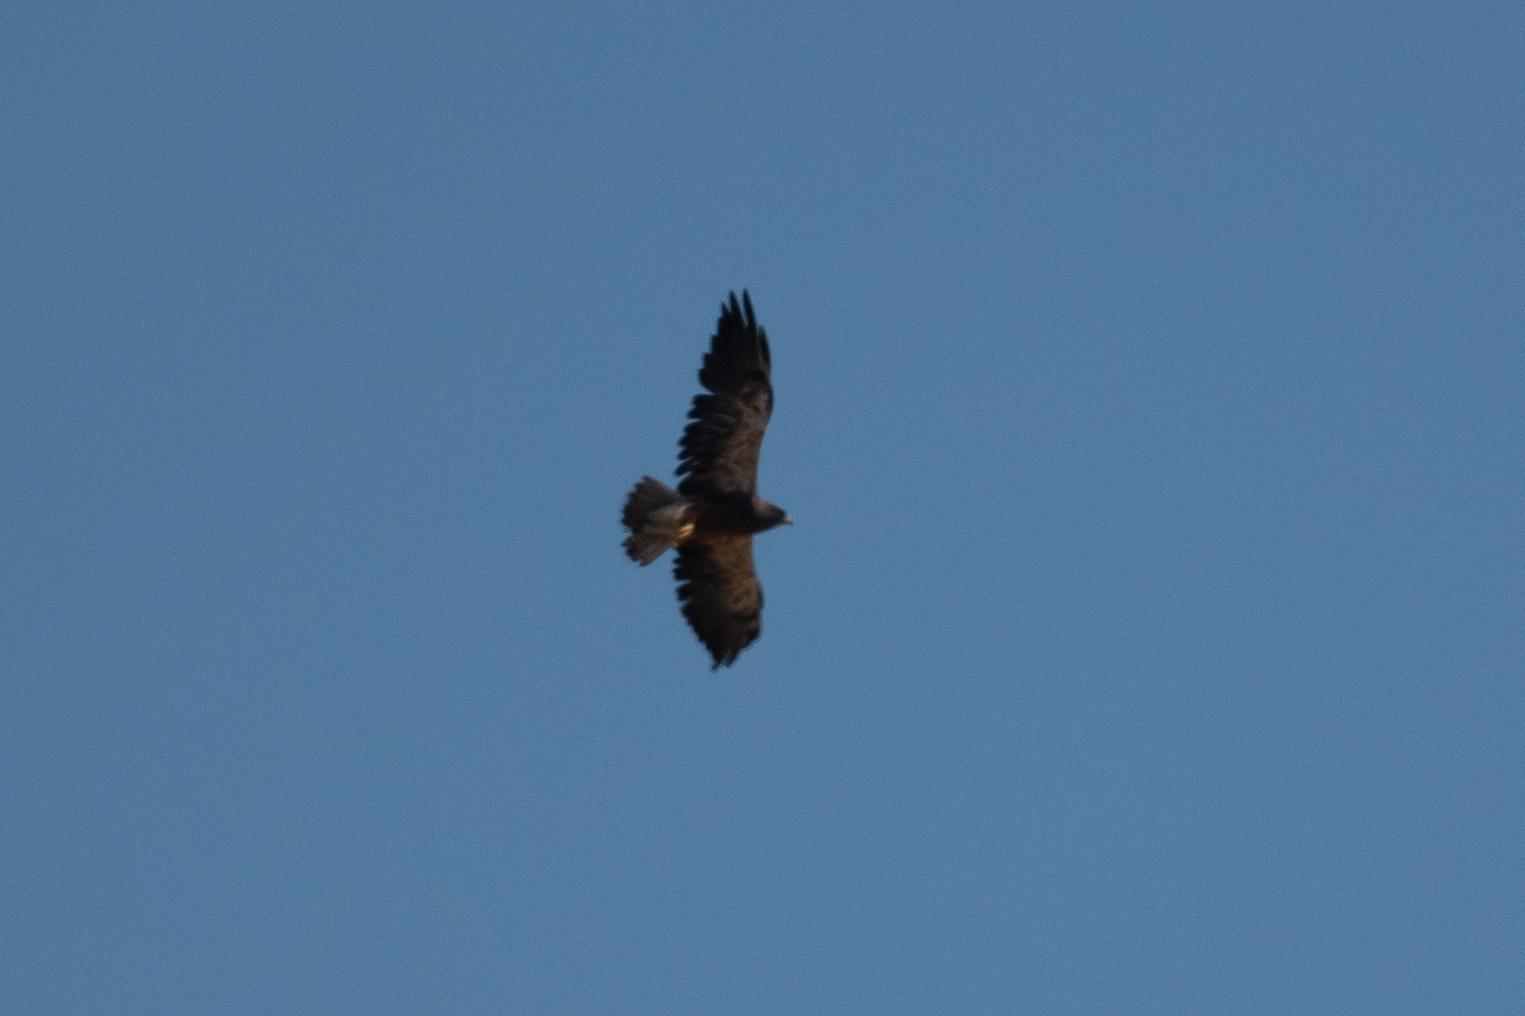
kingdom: Animalia
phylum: Chordata
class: Aves
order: Accipitriformes
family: Accipitridae
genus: Buteo
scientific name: Buteo swainsoni
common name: Swainson's hawk
